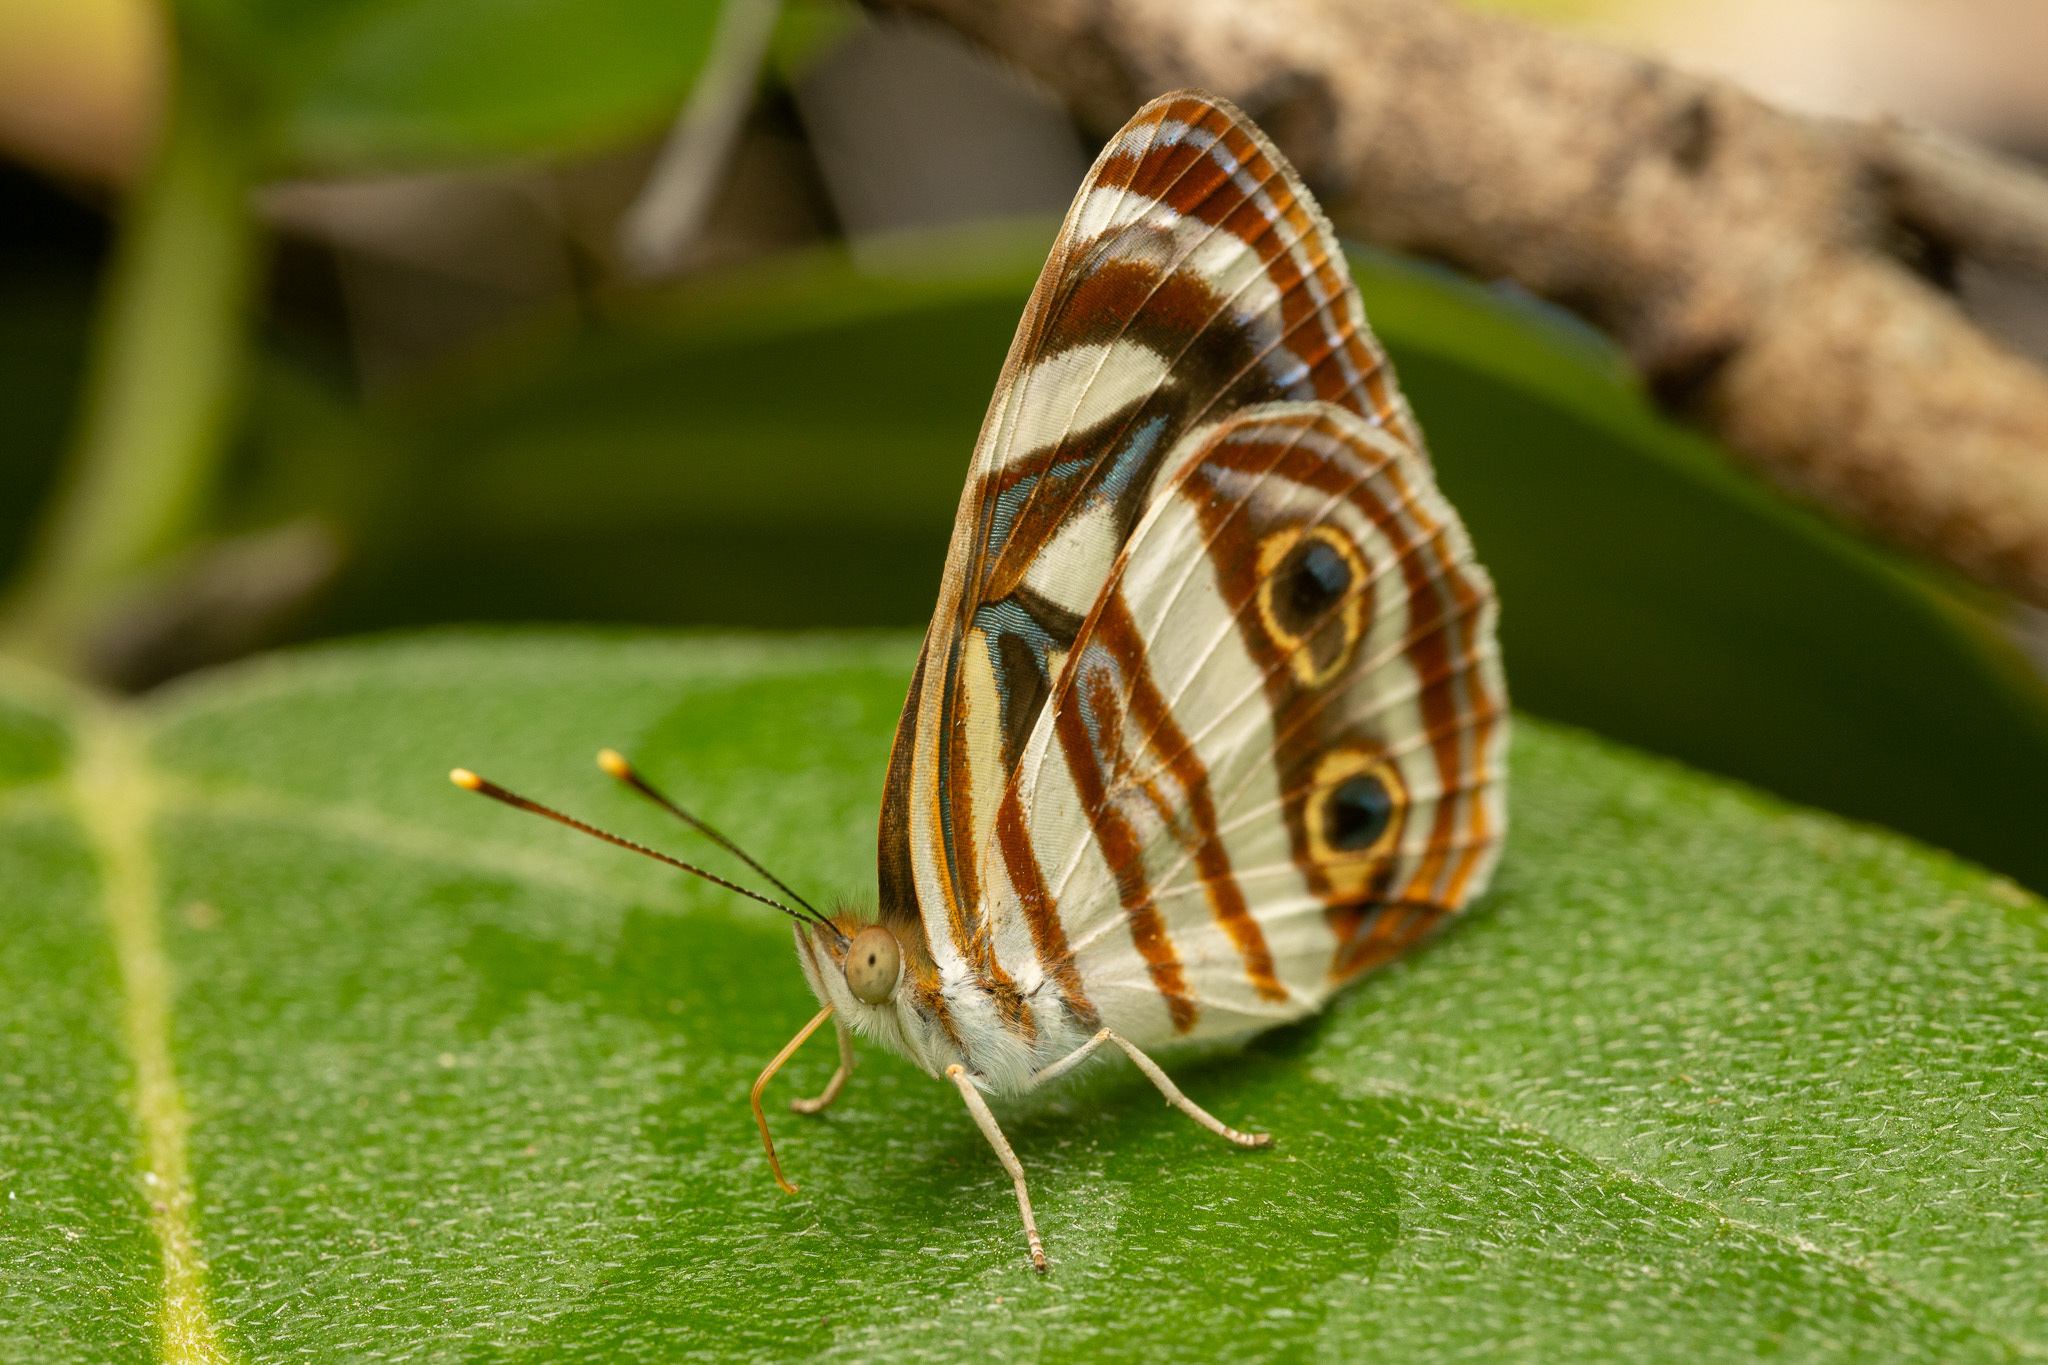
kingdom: Animalia
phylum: Arthropoda
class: Insecta
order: Lepidoptera
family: Nymphalidae
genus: Dynamine
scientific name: Dynamine mylitta
